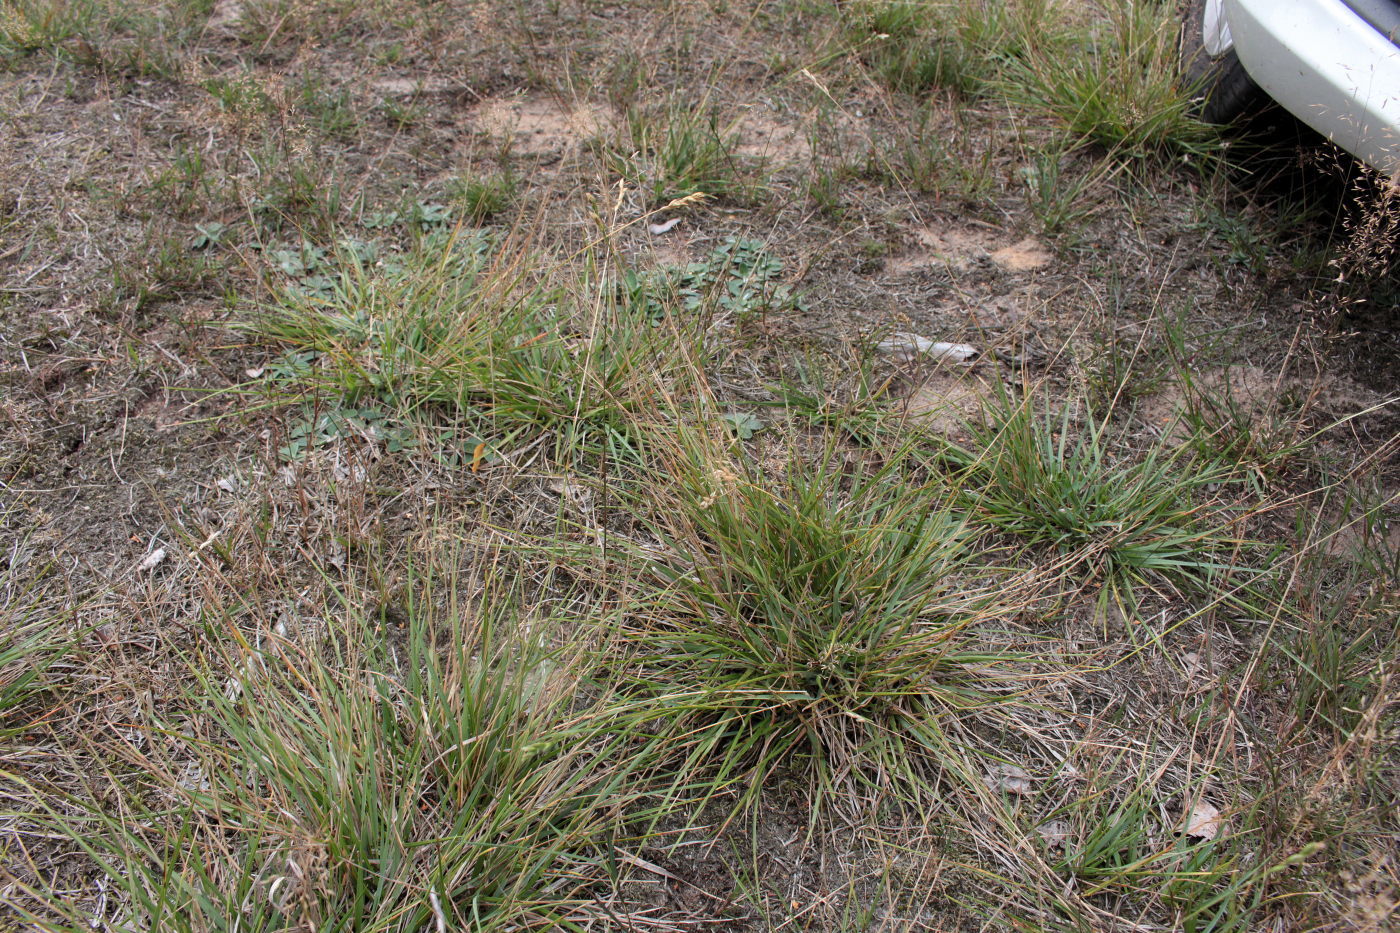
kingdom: Plantae
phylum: Tracheophyta
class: Liliopsida
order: Poales
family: Poaceae
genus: Danthonia
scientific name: Danthonia decumbens
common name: Common heathgrass
